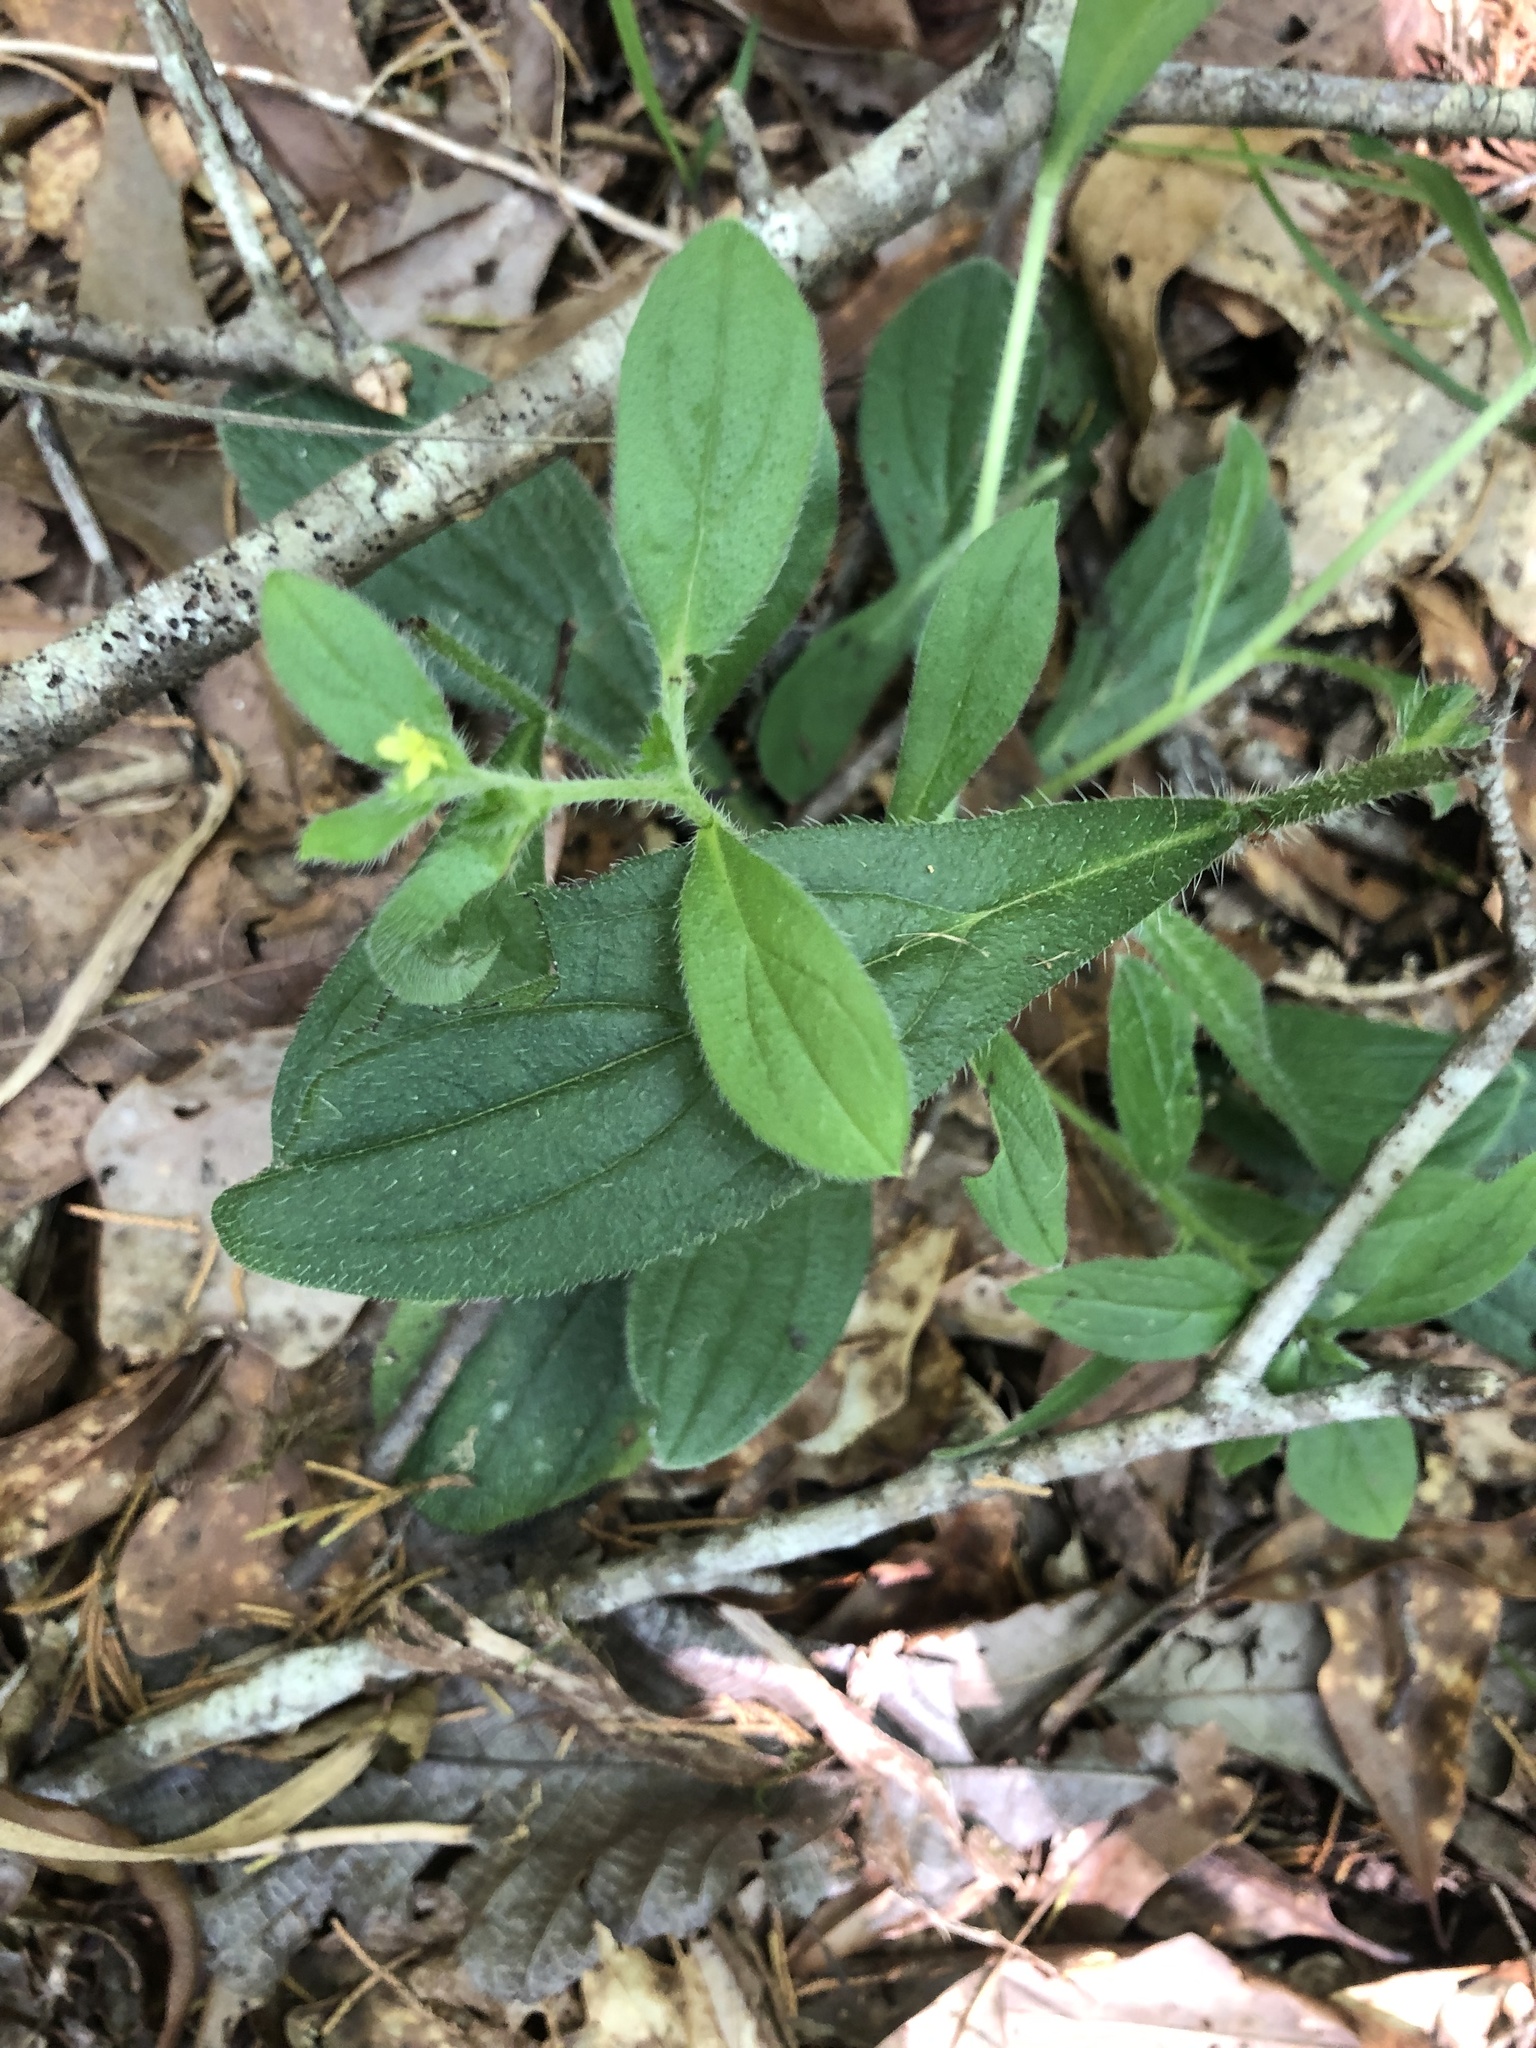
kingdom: Plantae
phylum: Tracheophyta
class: Magnoliopsida
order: Boraginales
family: Boraginaceae
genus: Lithospermum
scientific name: Lithospermum tuberosum
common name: Southern stoneseed
